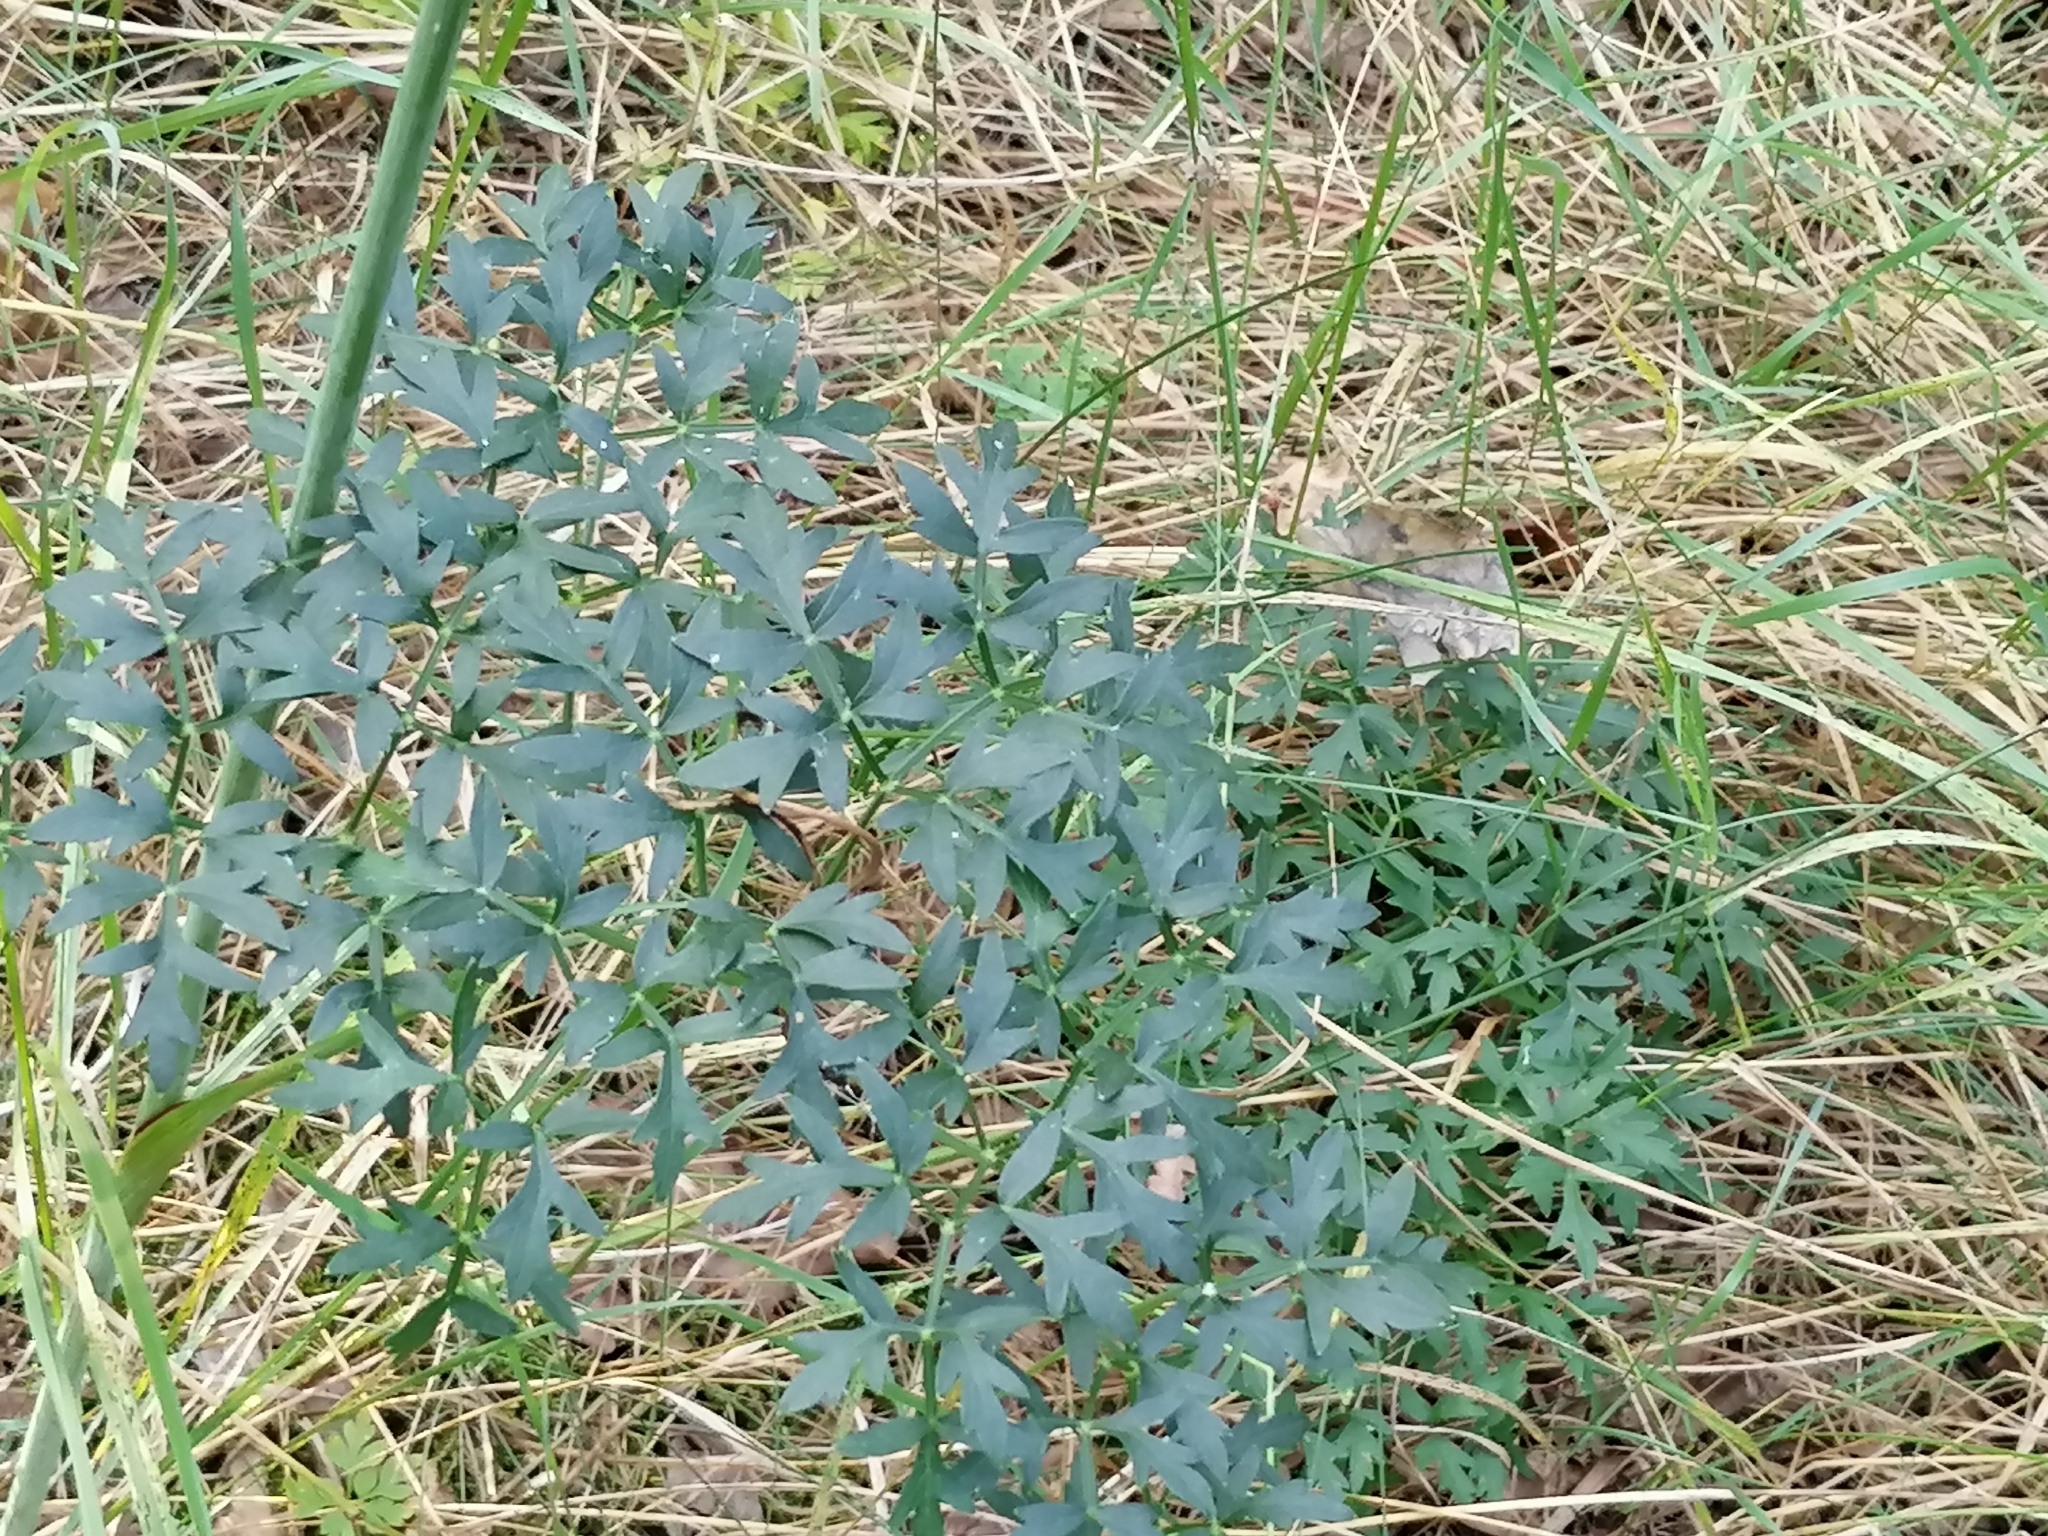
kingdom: Plantae
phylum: Tracheophyta
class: Magnoliopsida
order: Apiales
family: Apiaceae
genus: Oreoselinum
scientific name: Oreoselinum nigrum
